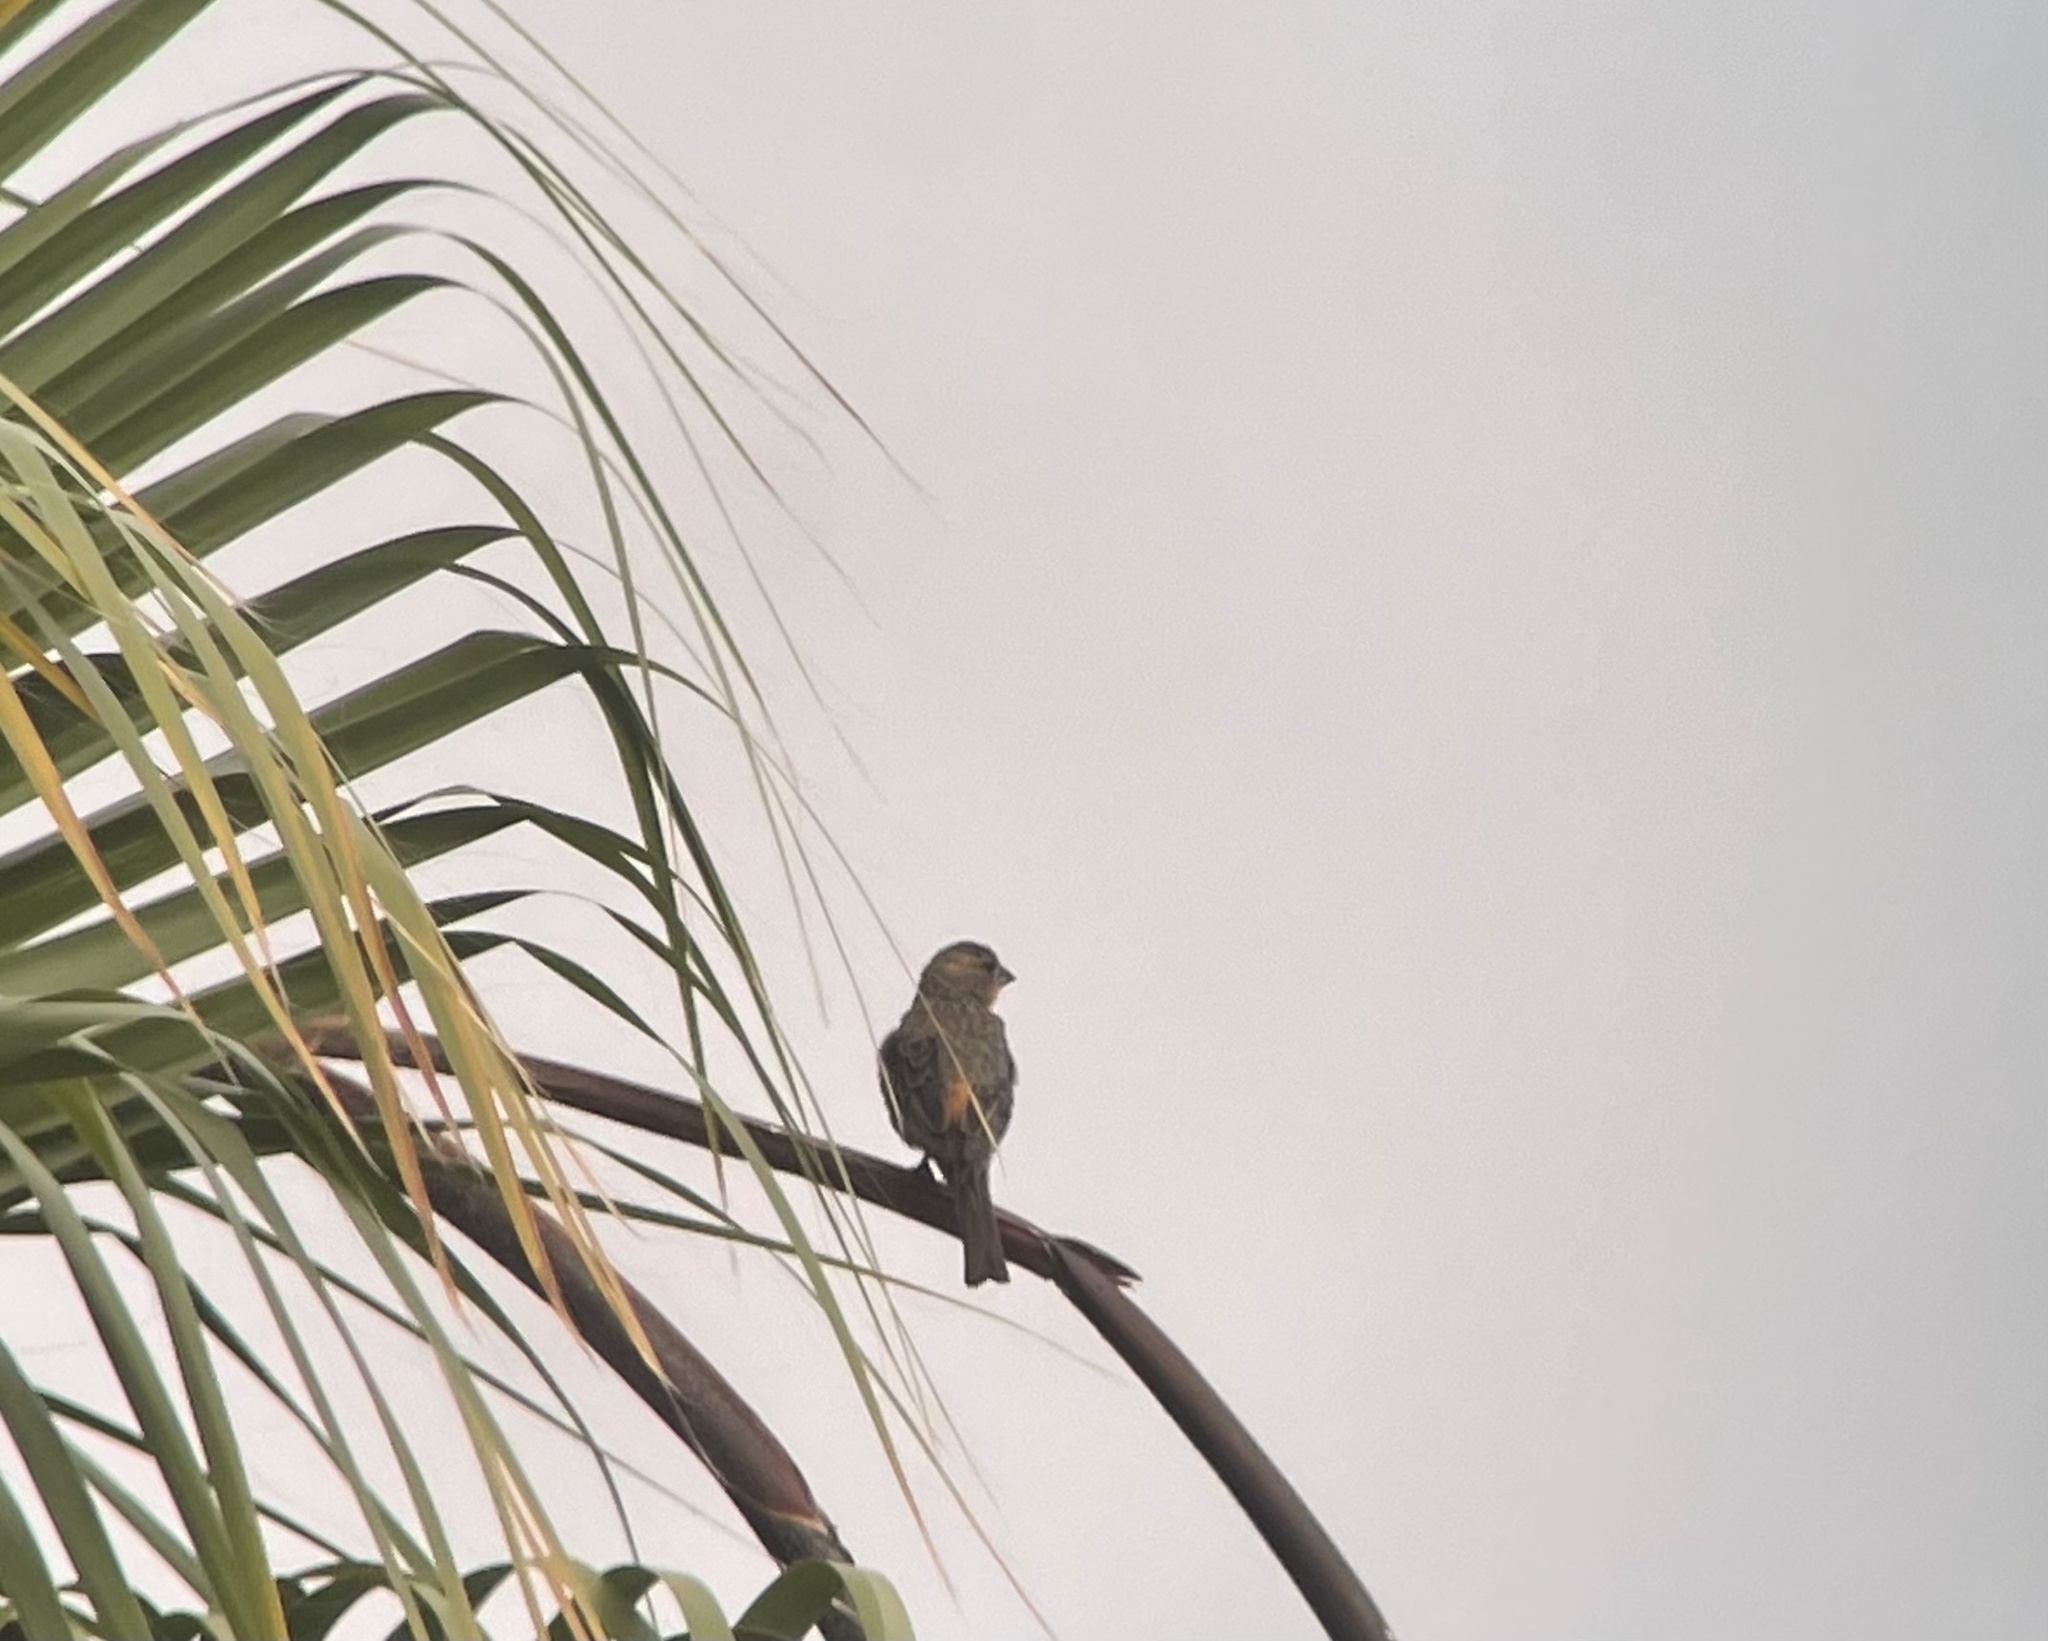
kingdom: Animalia
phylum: Chordata
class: Aves
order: Passeriformes
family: Passerellidae
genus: Melozone
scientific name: Melozone crissalis
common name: California towhee
